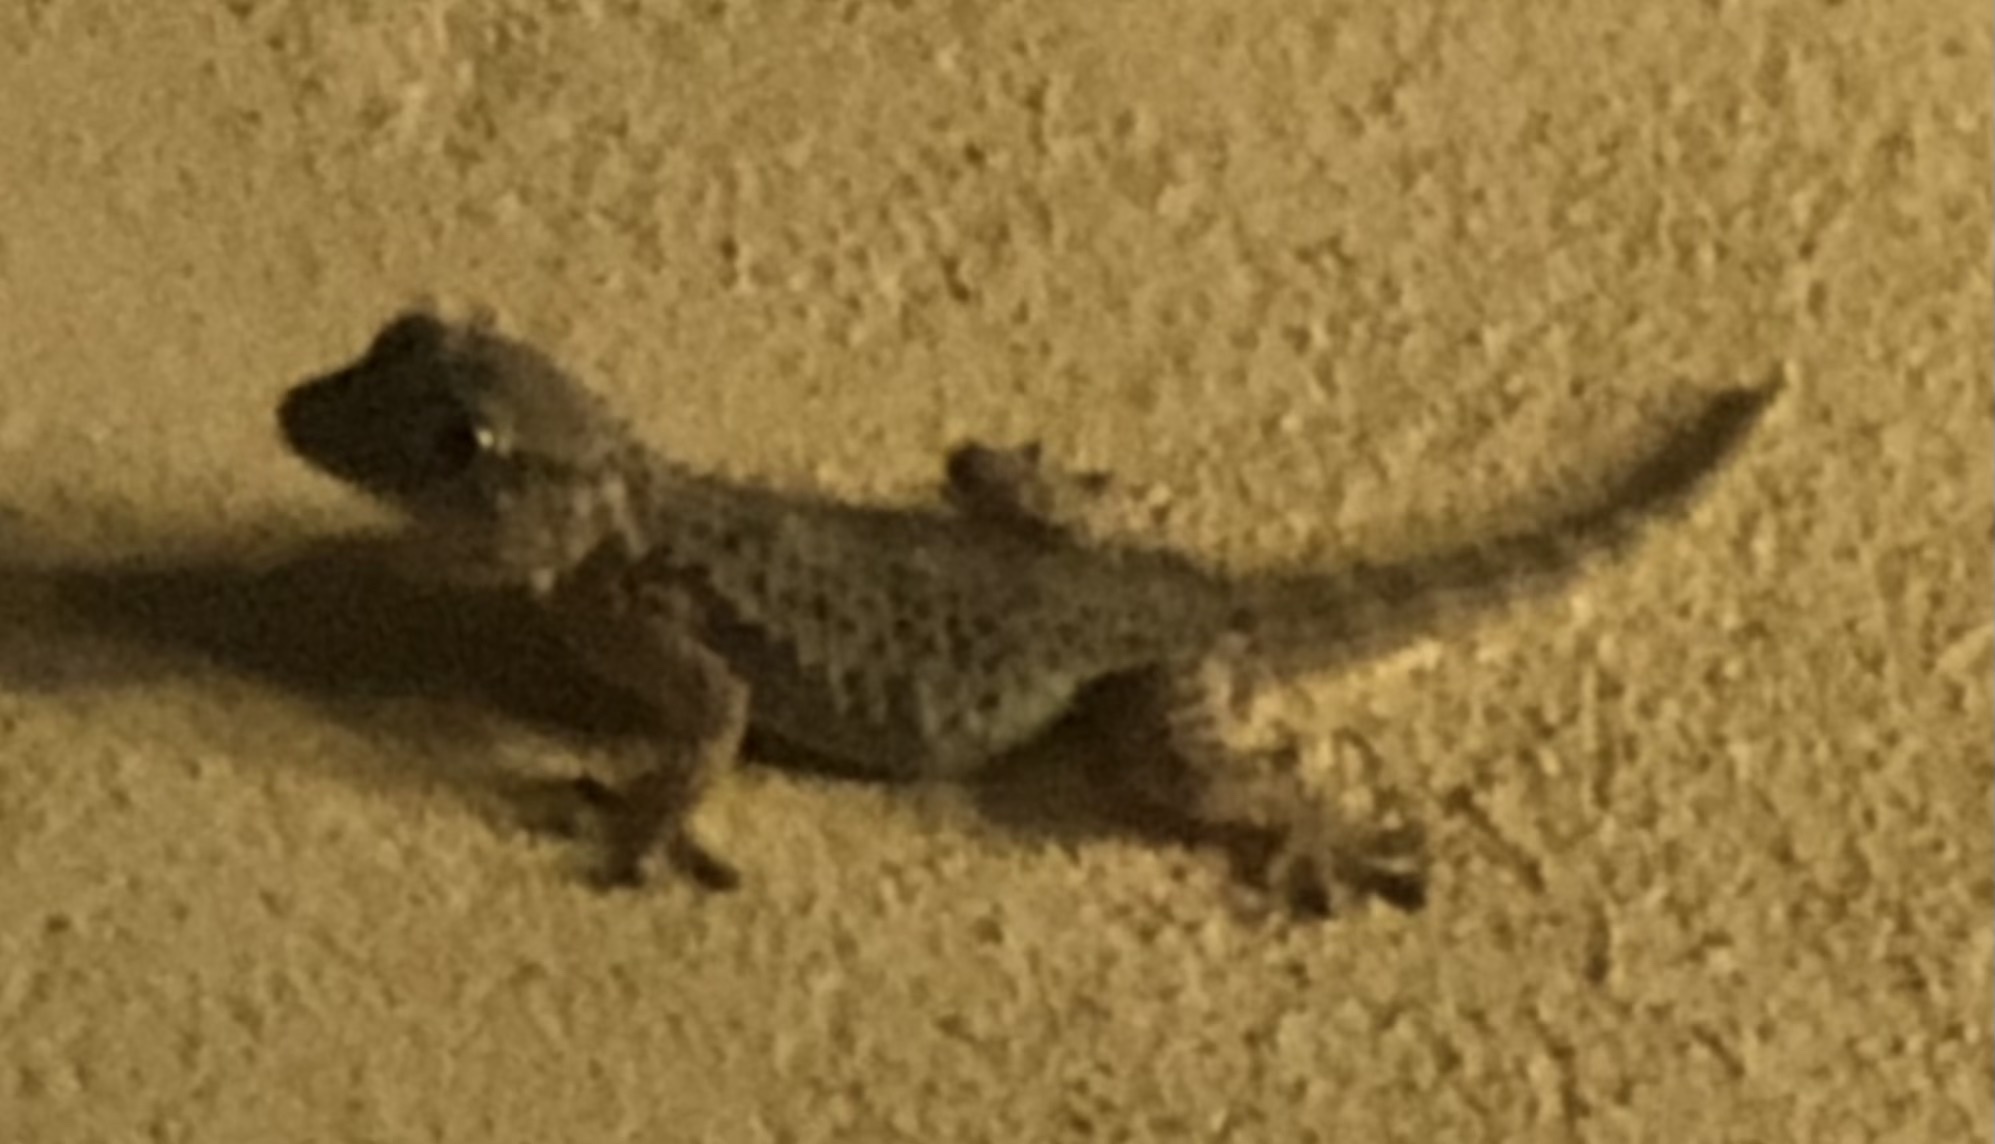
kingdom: Animalia
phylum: Chordata
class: Squamata
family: Phyllodactylidae
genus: Tarentola
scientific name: Tarentola mauritanica
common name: Moorish gecko
